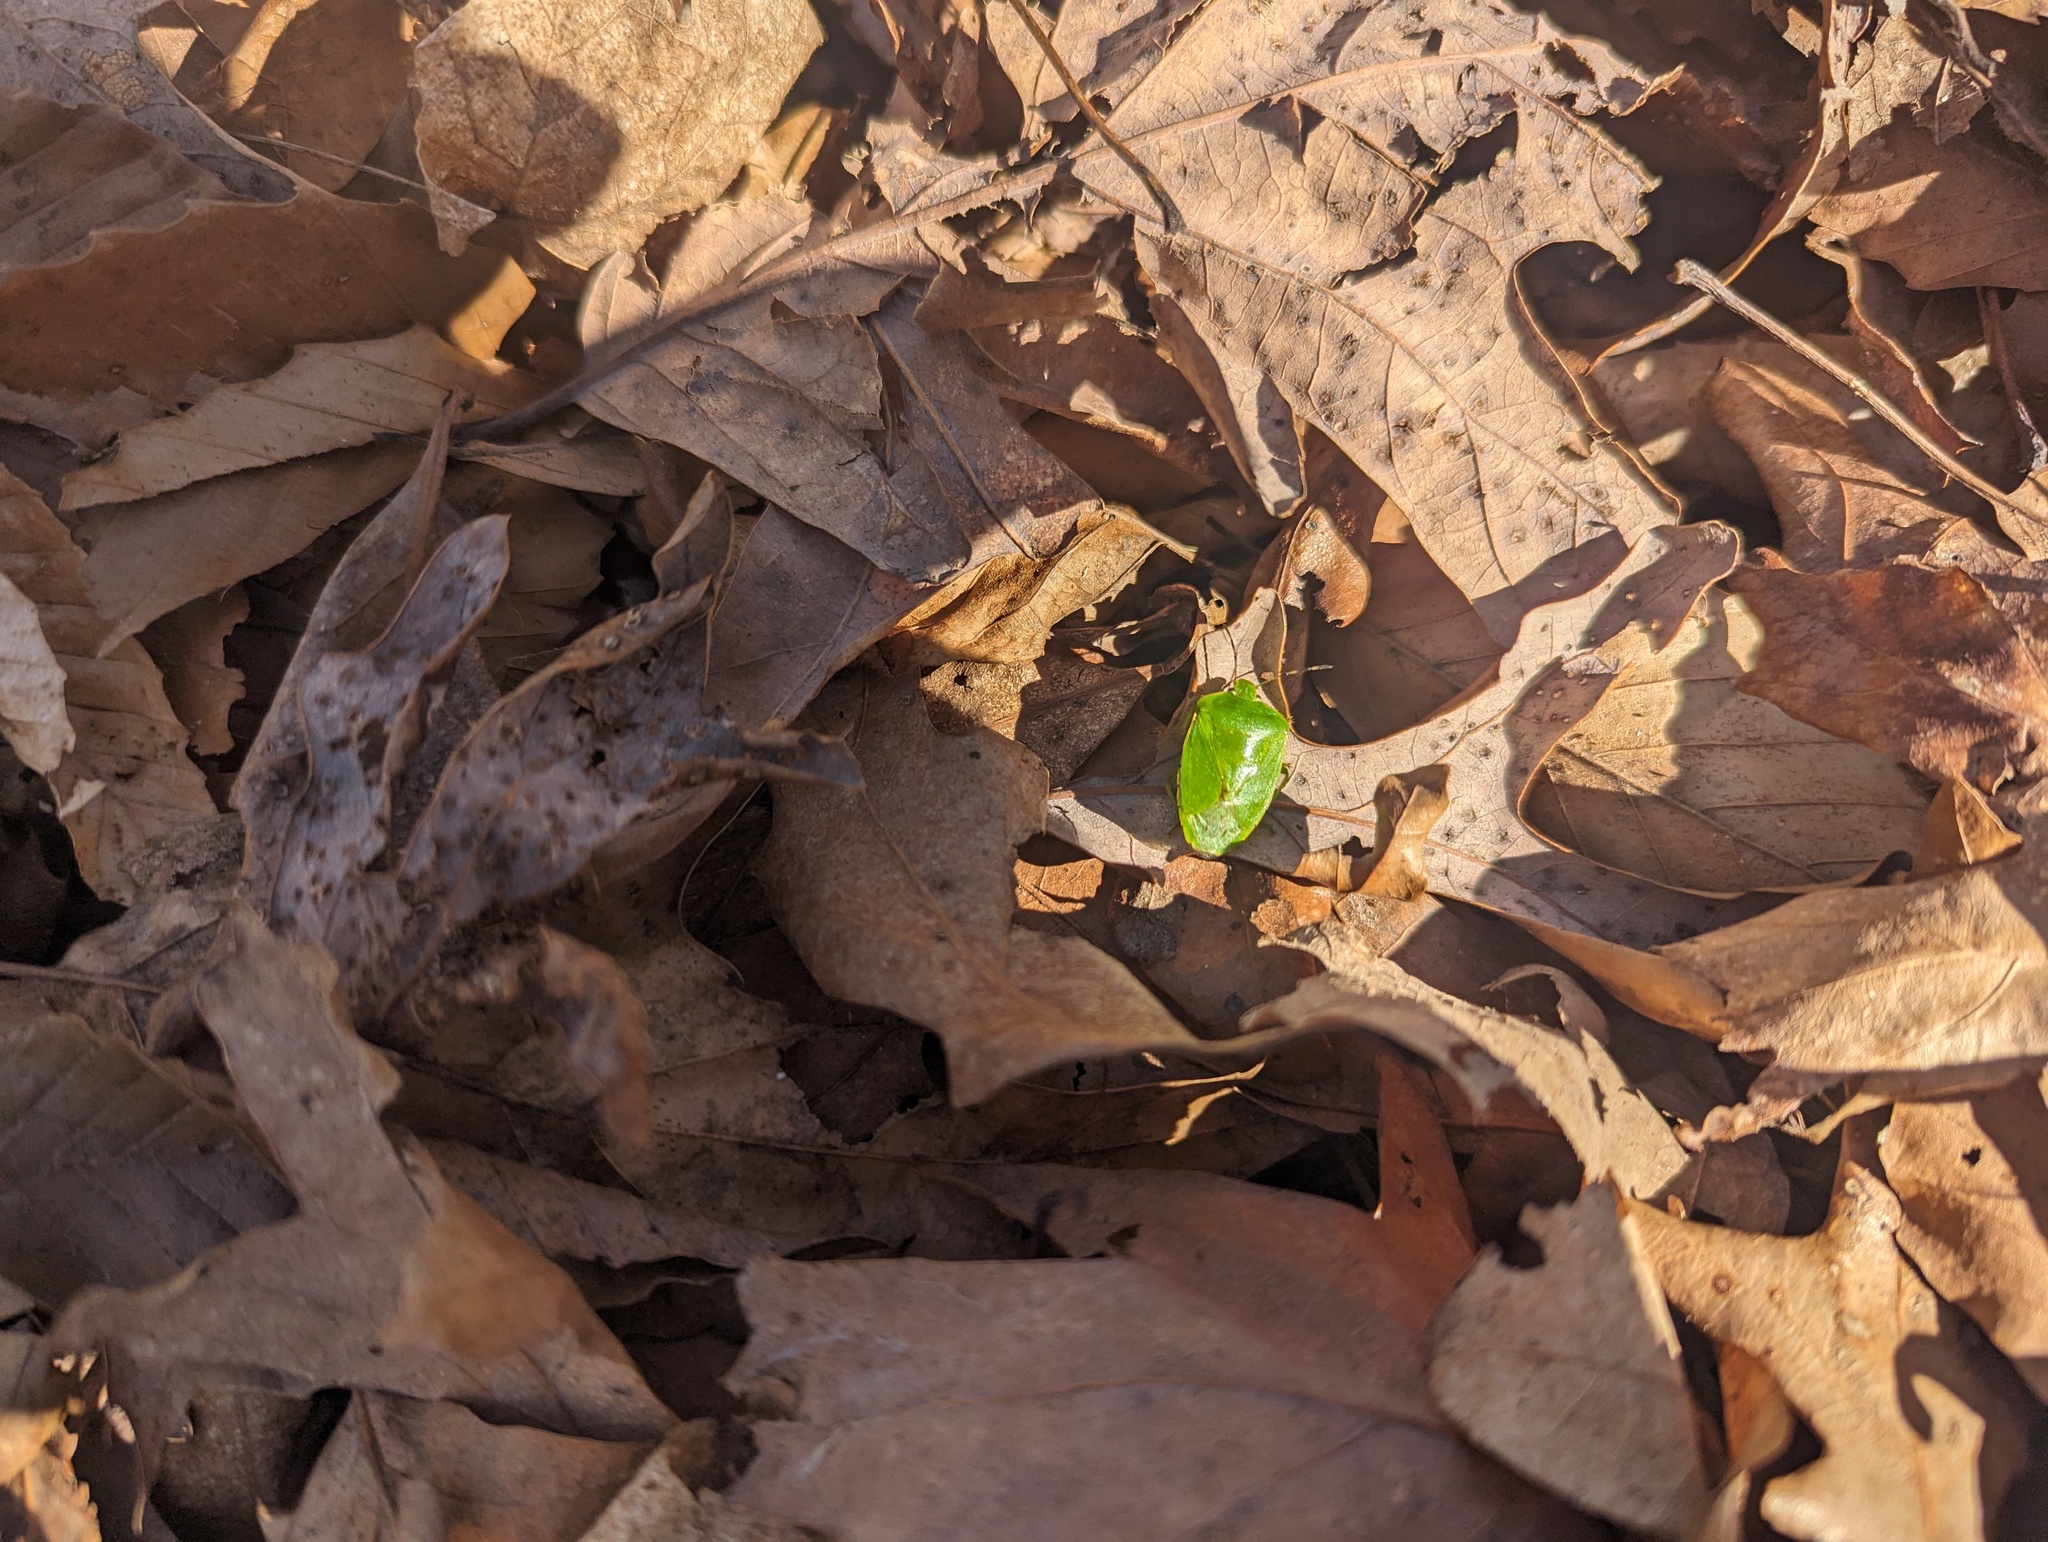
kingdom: Animalia
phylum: Arthropoda
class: Insecta
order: Hemiptera
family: Pentatomidae
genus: Chinavia
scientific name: Chinavia hilaris
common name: Green stink bug
